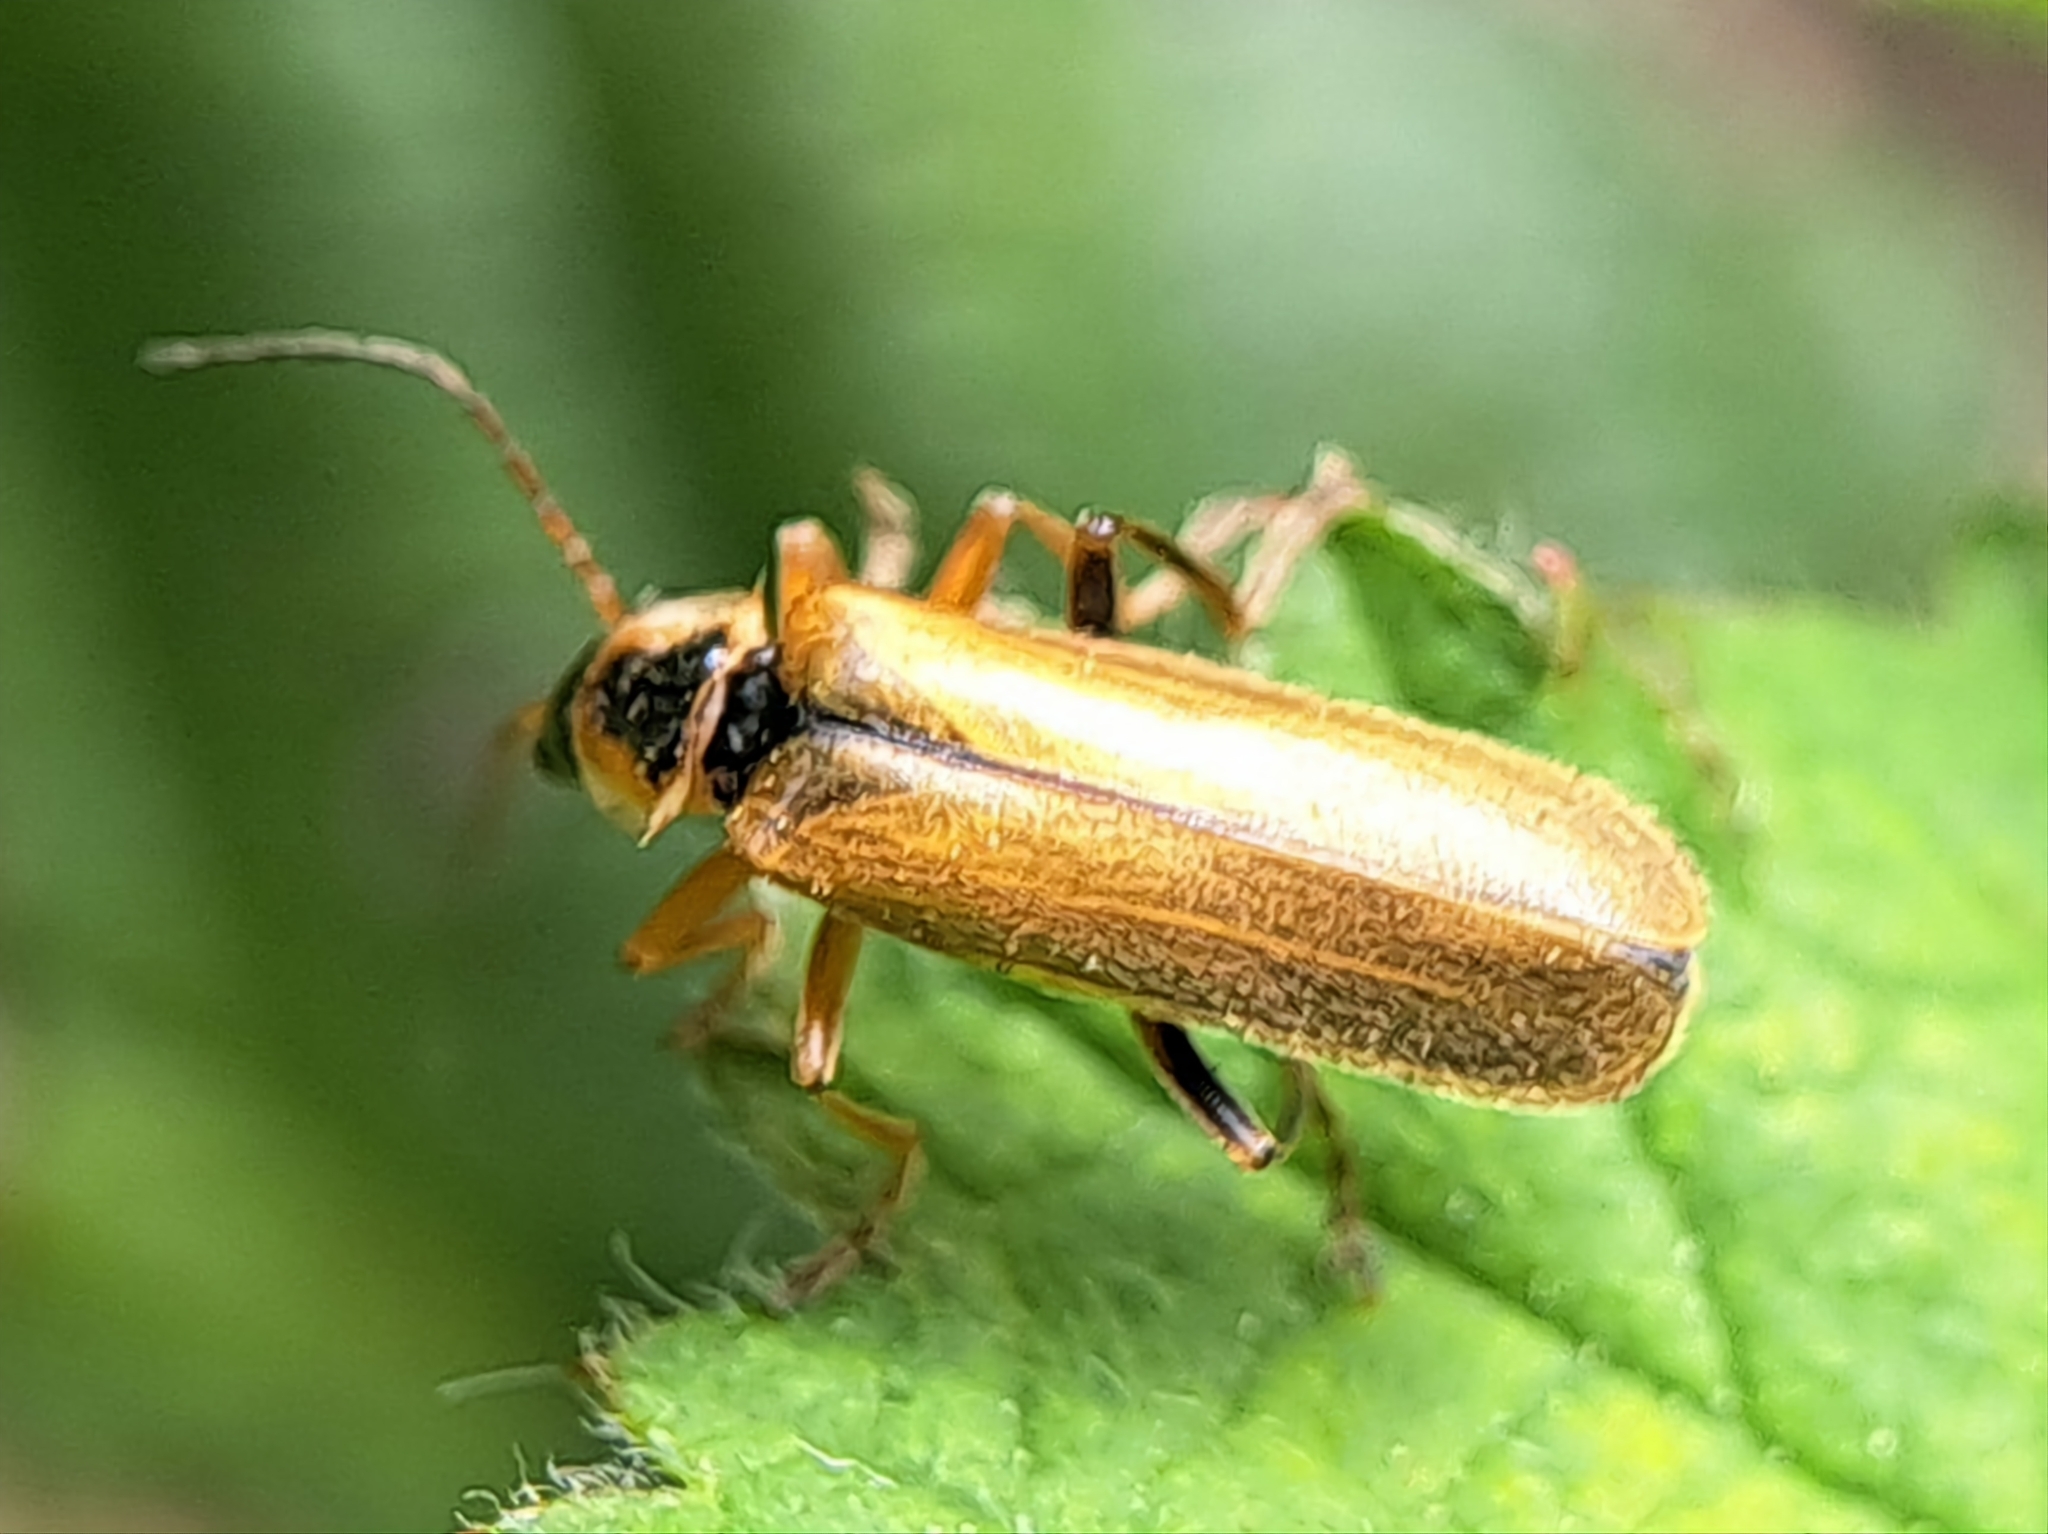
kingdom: Animalia
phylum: Arthropoda
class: Insecta
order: Coleoptera
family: Cantharidae
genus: Cantharis
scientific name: Cantharis decipiens
